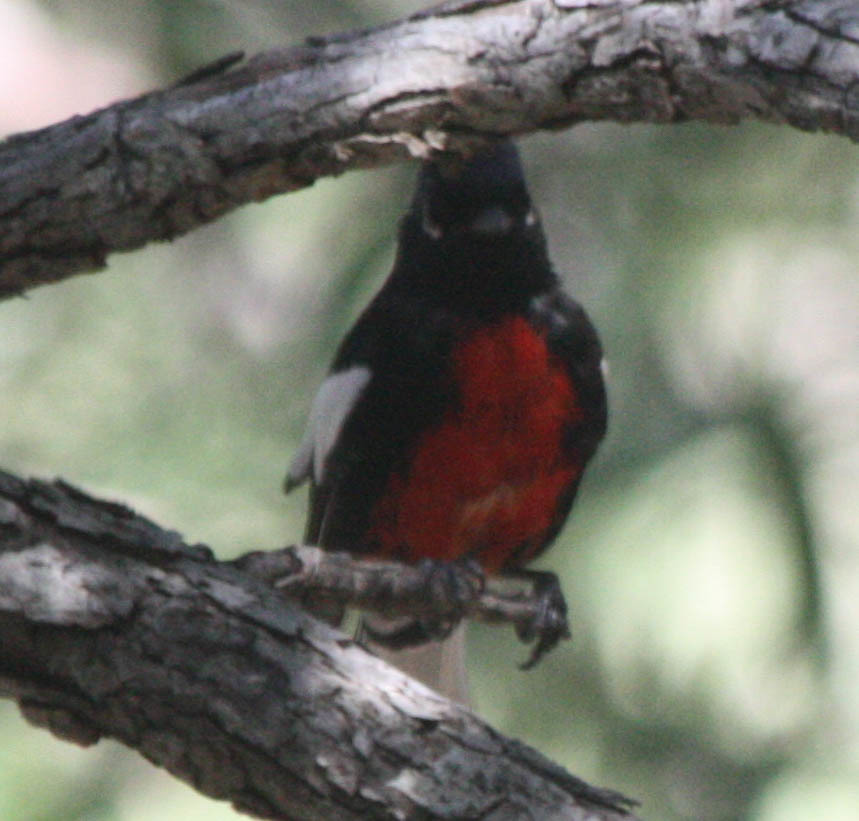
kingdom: Animalia
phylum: Chordata
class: Aves
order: Passeriformes
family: Parulidae
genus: Myioborus
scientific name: Myioborus pictus
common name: Painted whitestart
